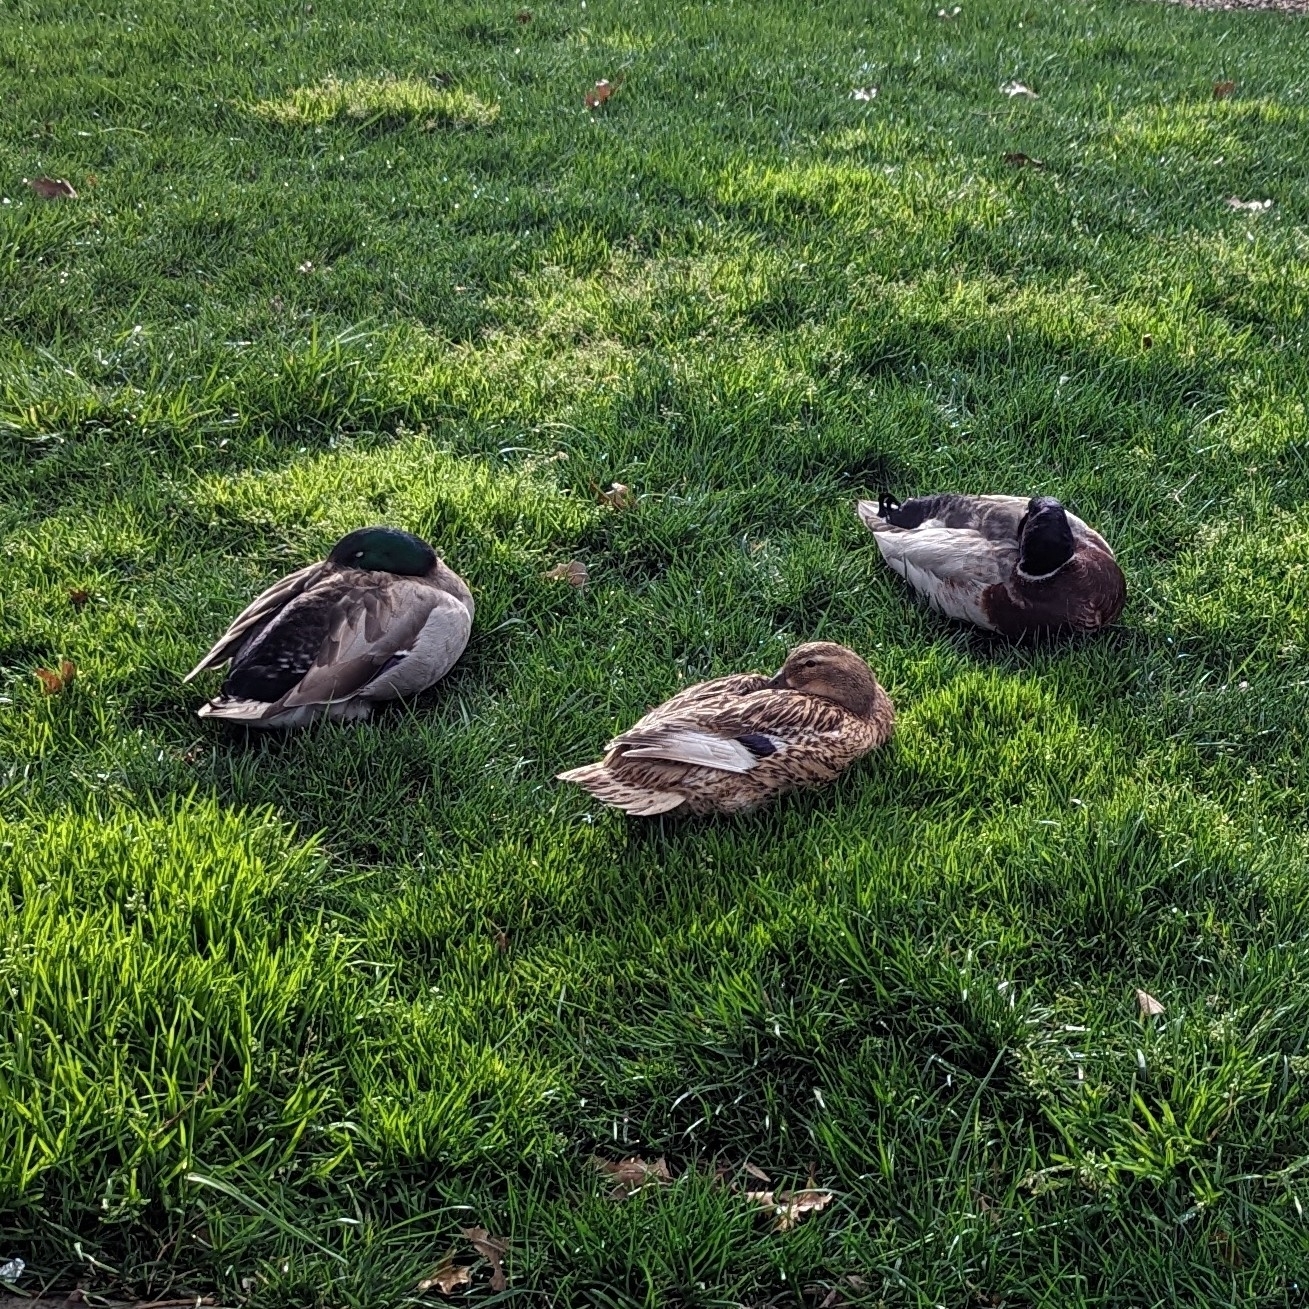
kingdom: Animalia
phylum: Chordata
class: Aves
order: Anseriformes
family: Anatidae
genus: Anas
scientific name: Anas platyrhynchos
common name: Mallard
